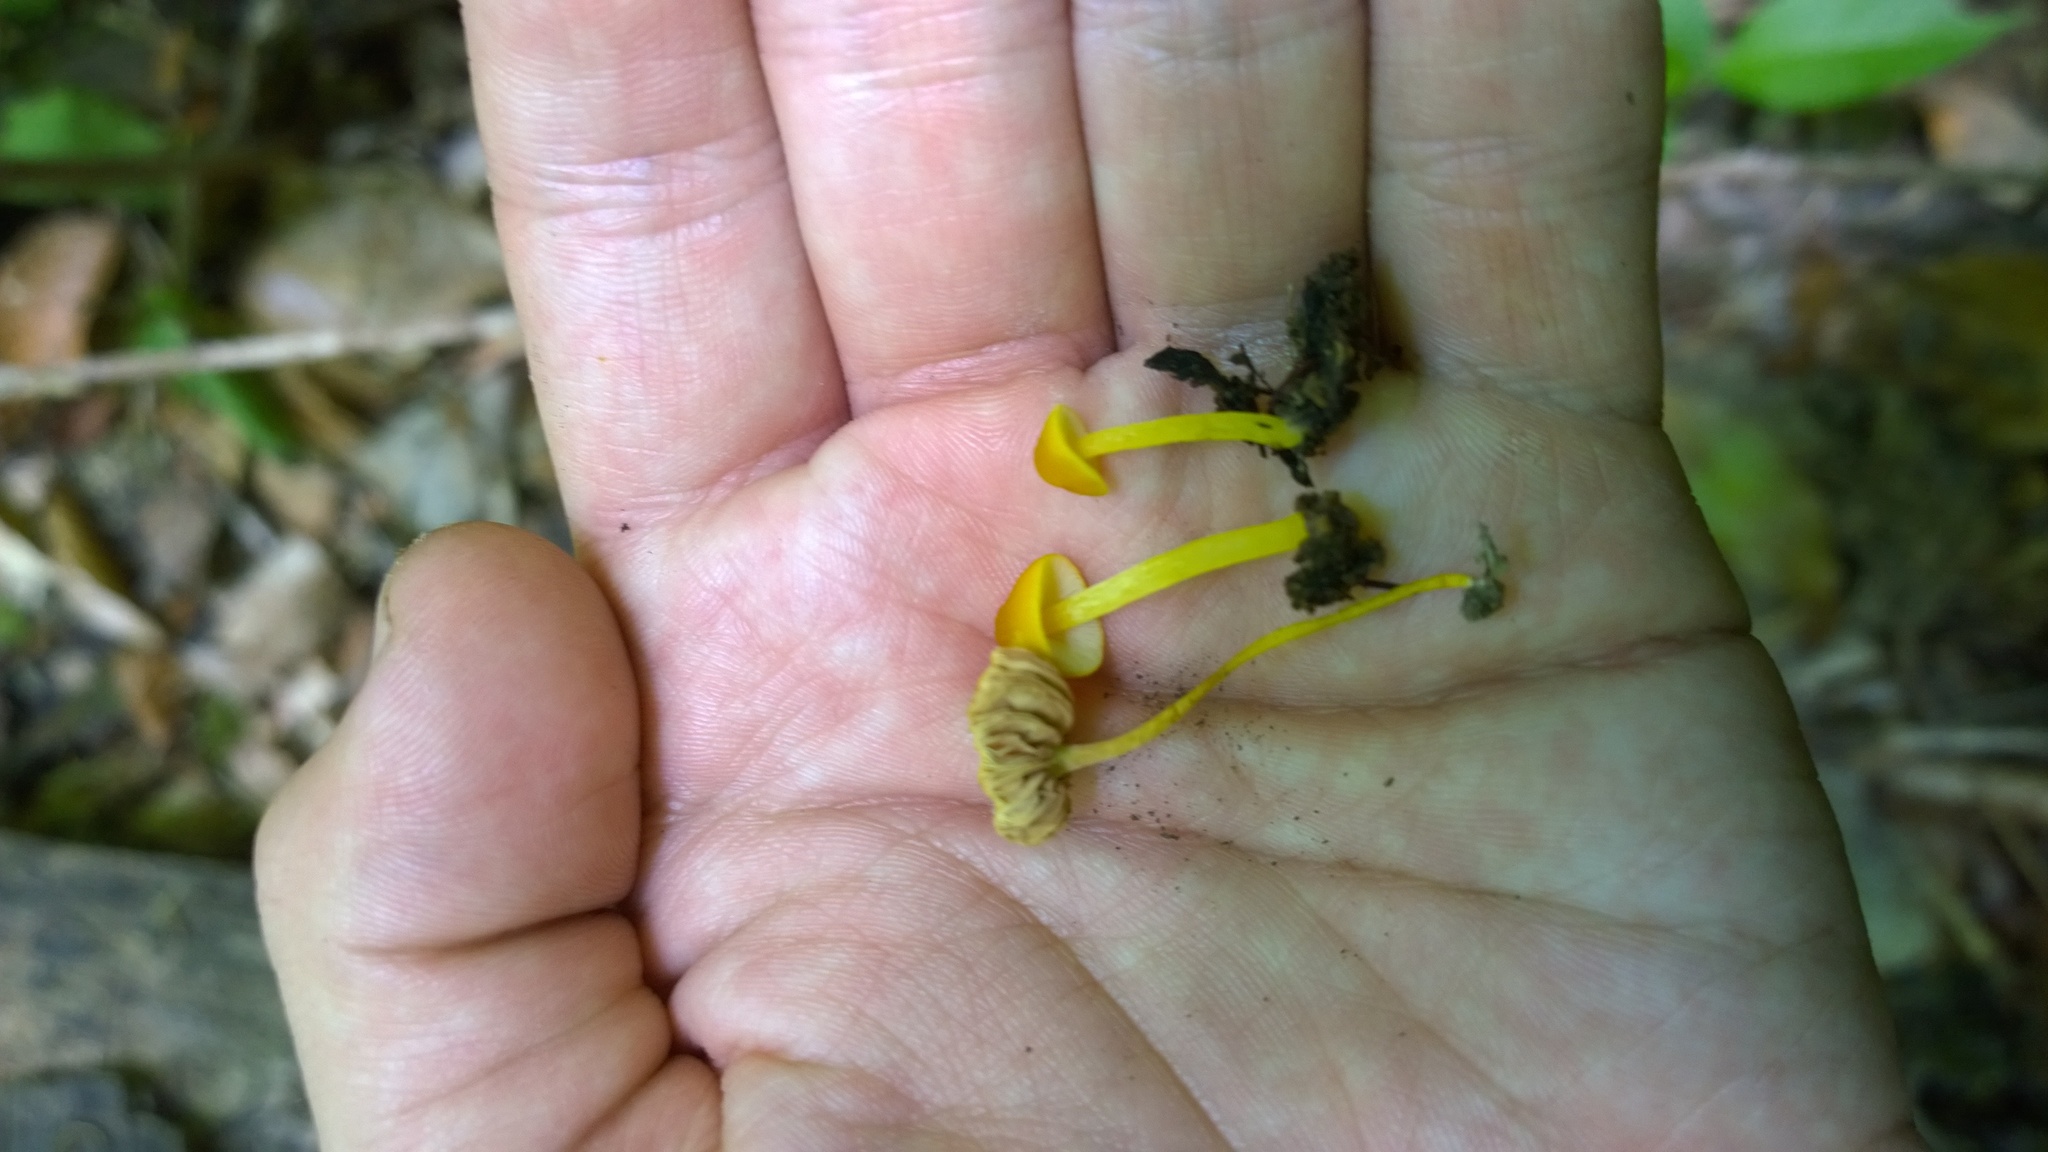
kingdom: Fungi
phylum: Basidiomycota
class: Agaricomycetes
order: Agaricales
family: Pluteaceae
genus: Pluteus
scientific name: Pluteus chrysophlebius
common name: Yellow deer mushroom
